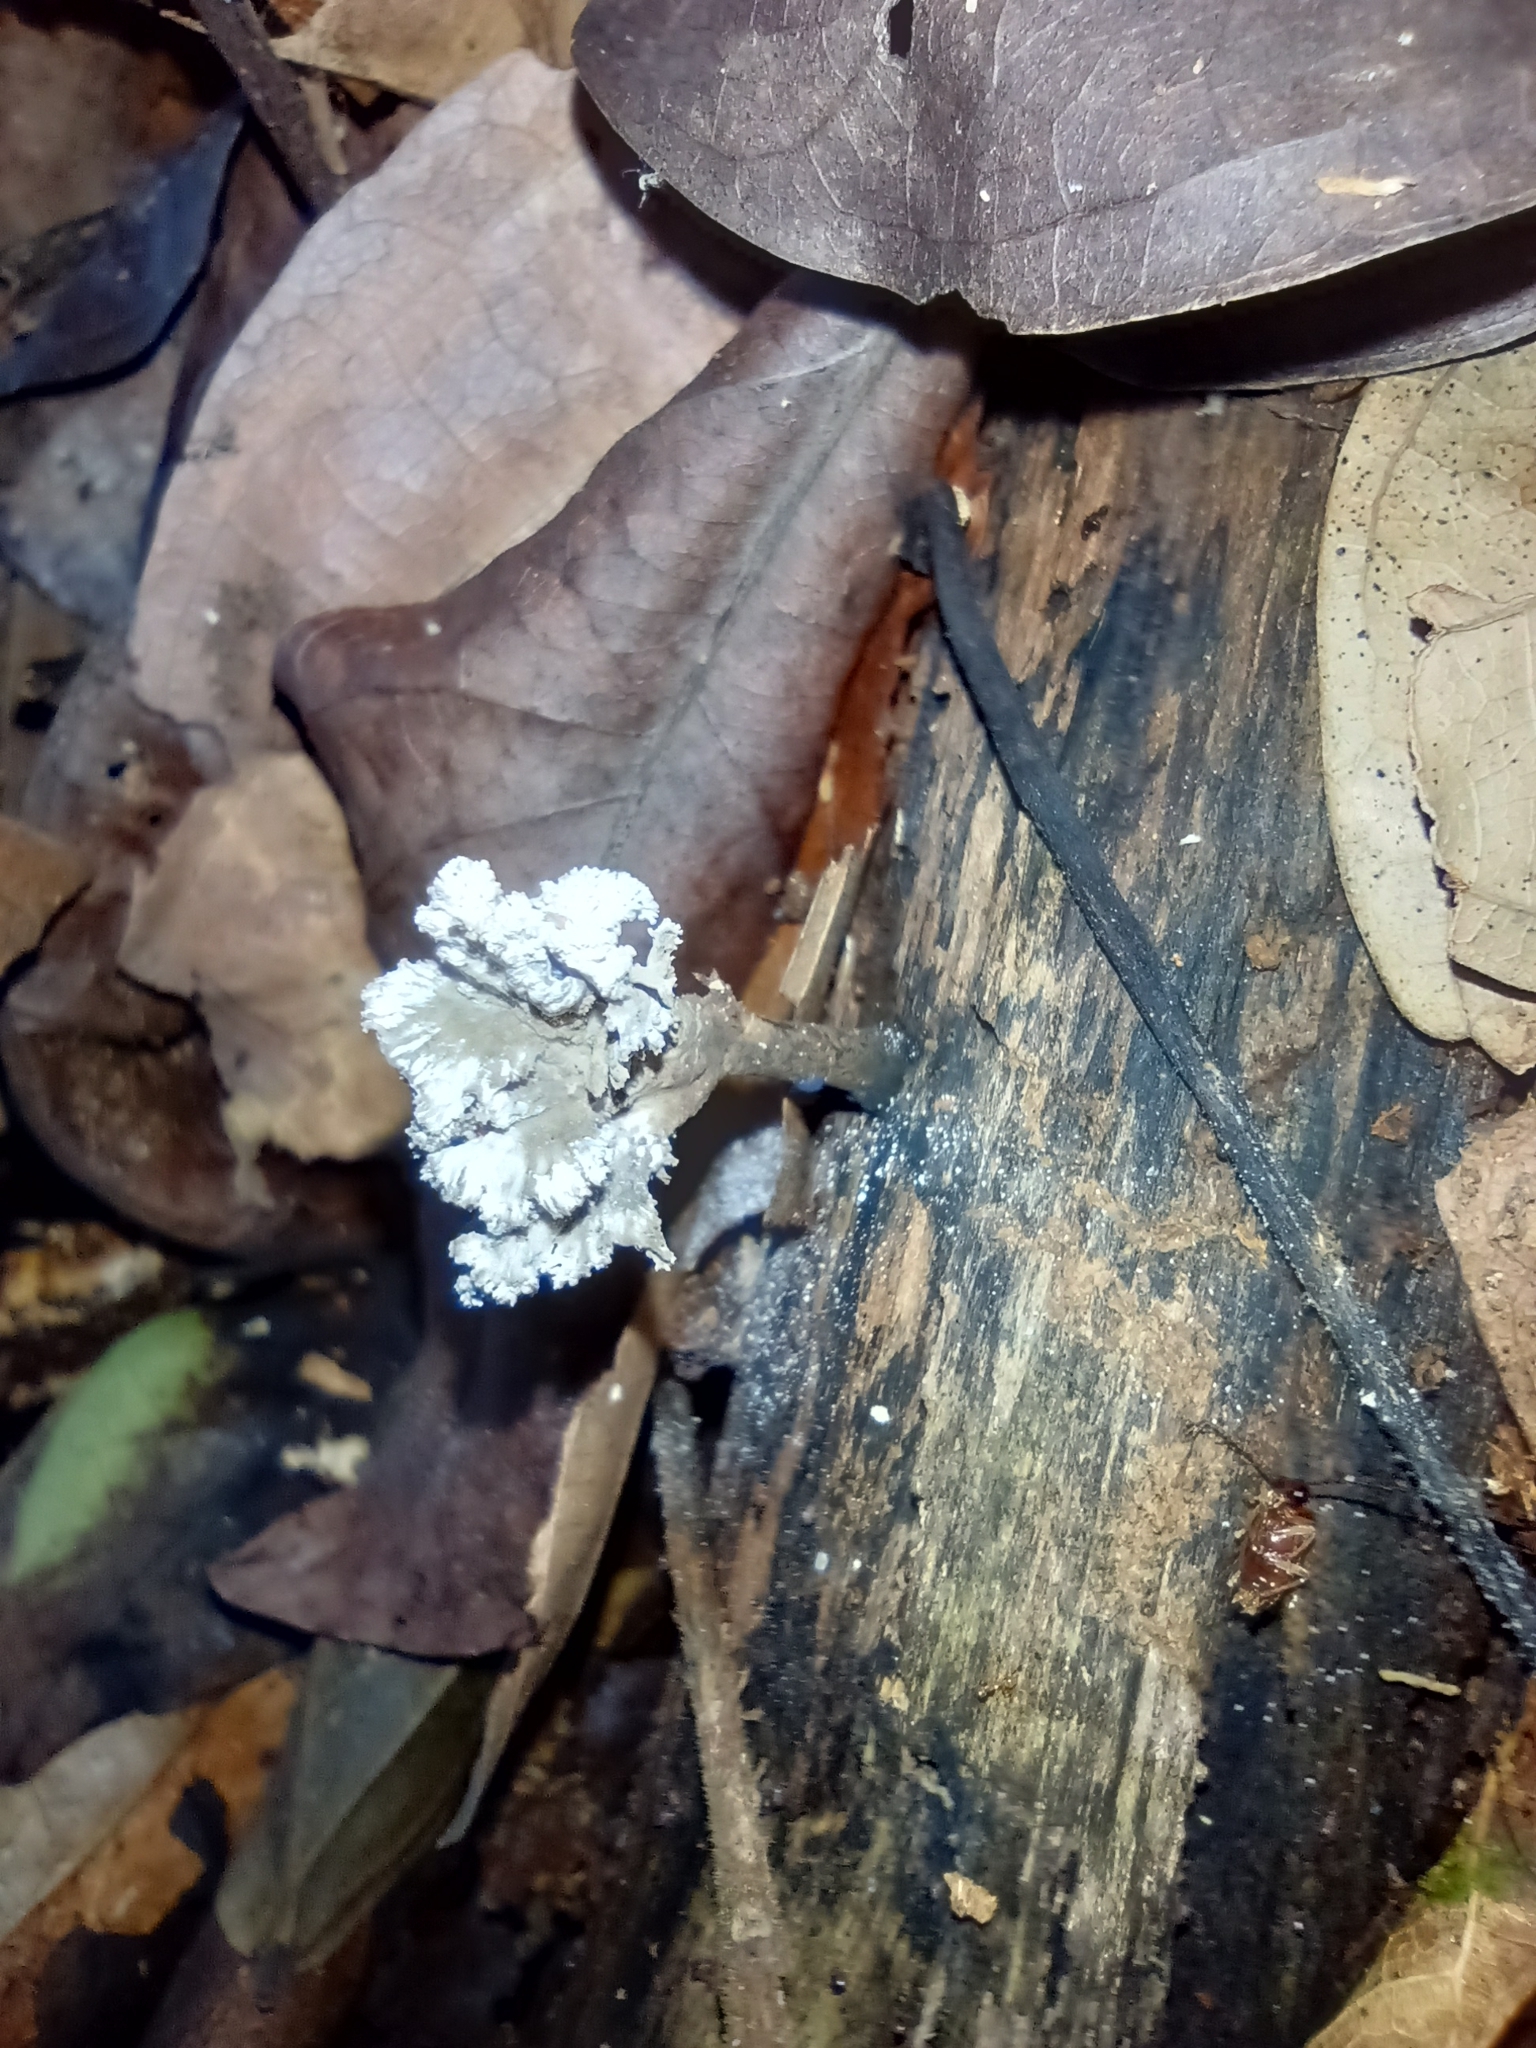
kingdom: Fungi
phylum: Ascomycota
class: Sordariomycetes
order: Xylariales
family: Xylariaceae
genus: Xylaria
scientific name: Xylaria cubensis
